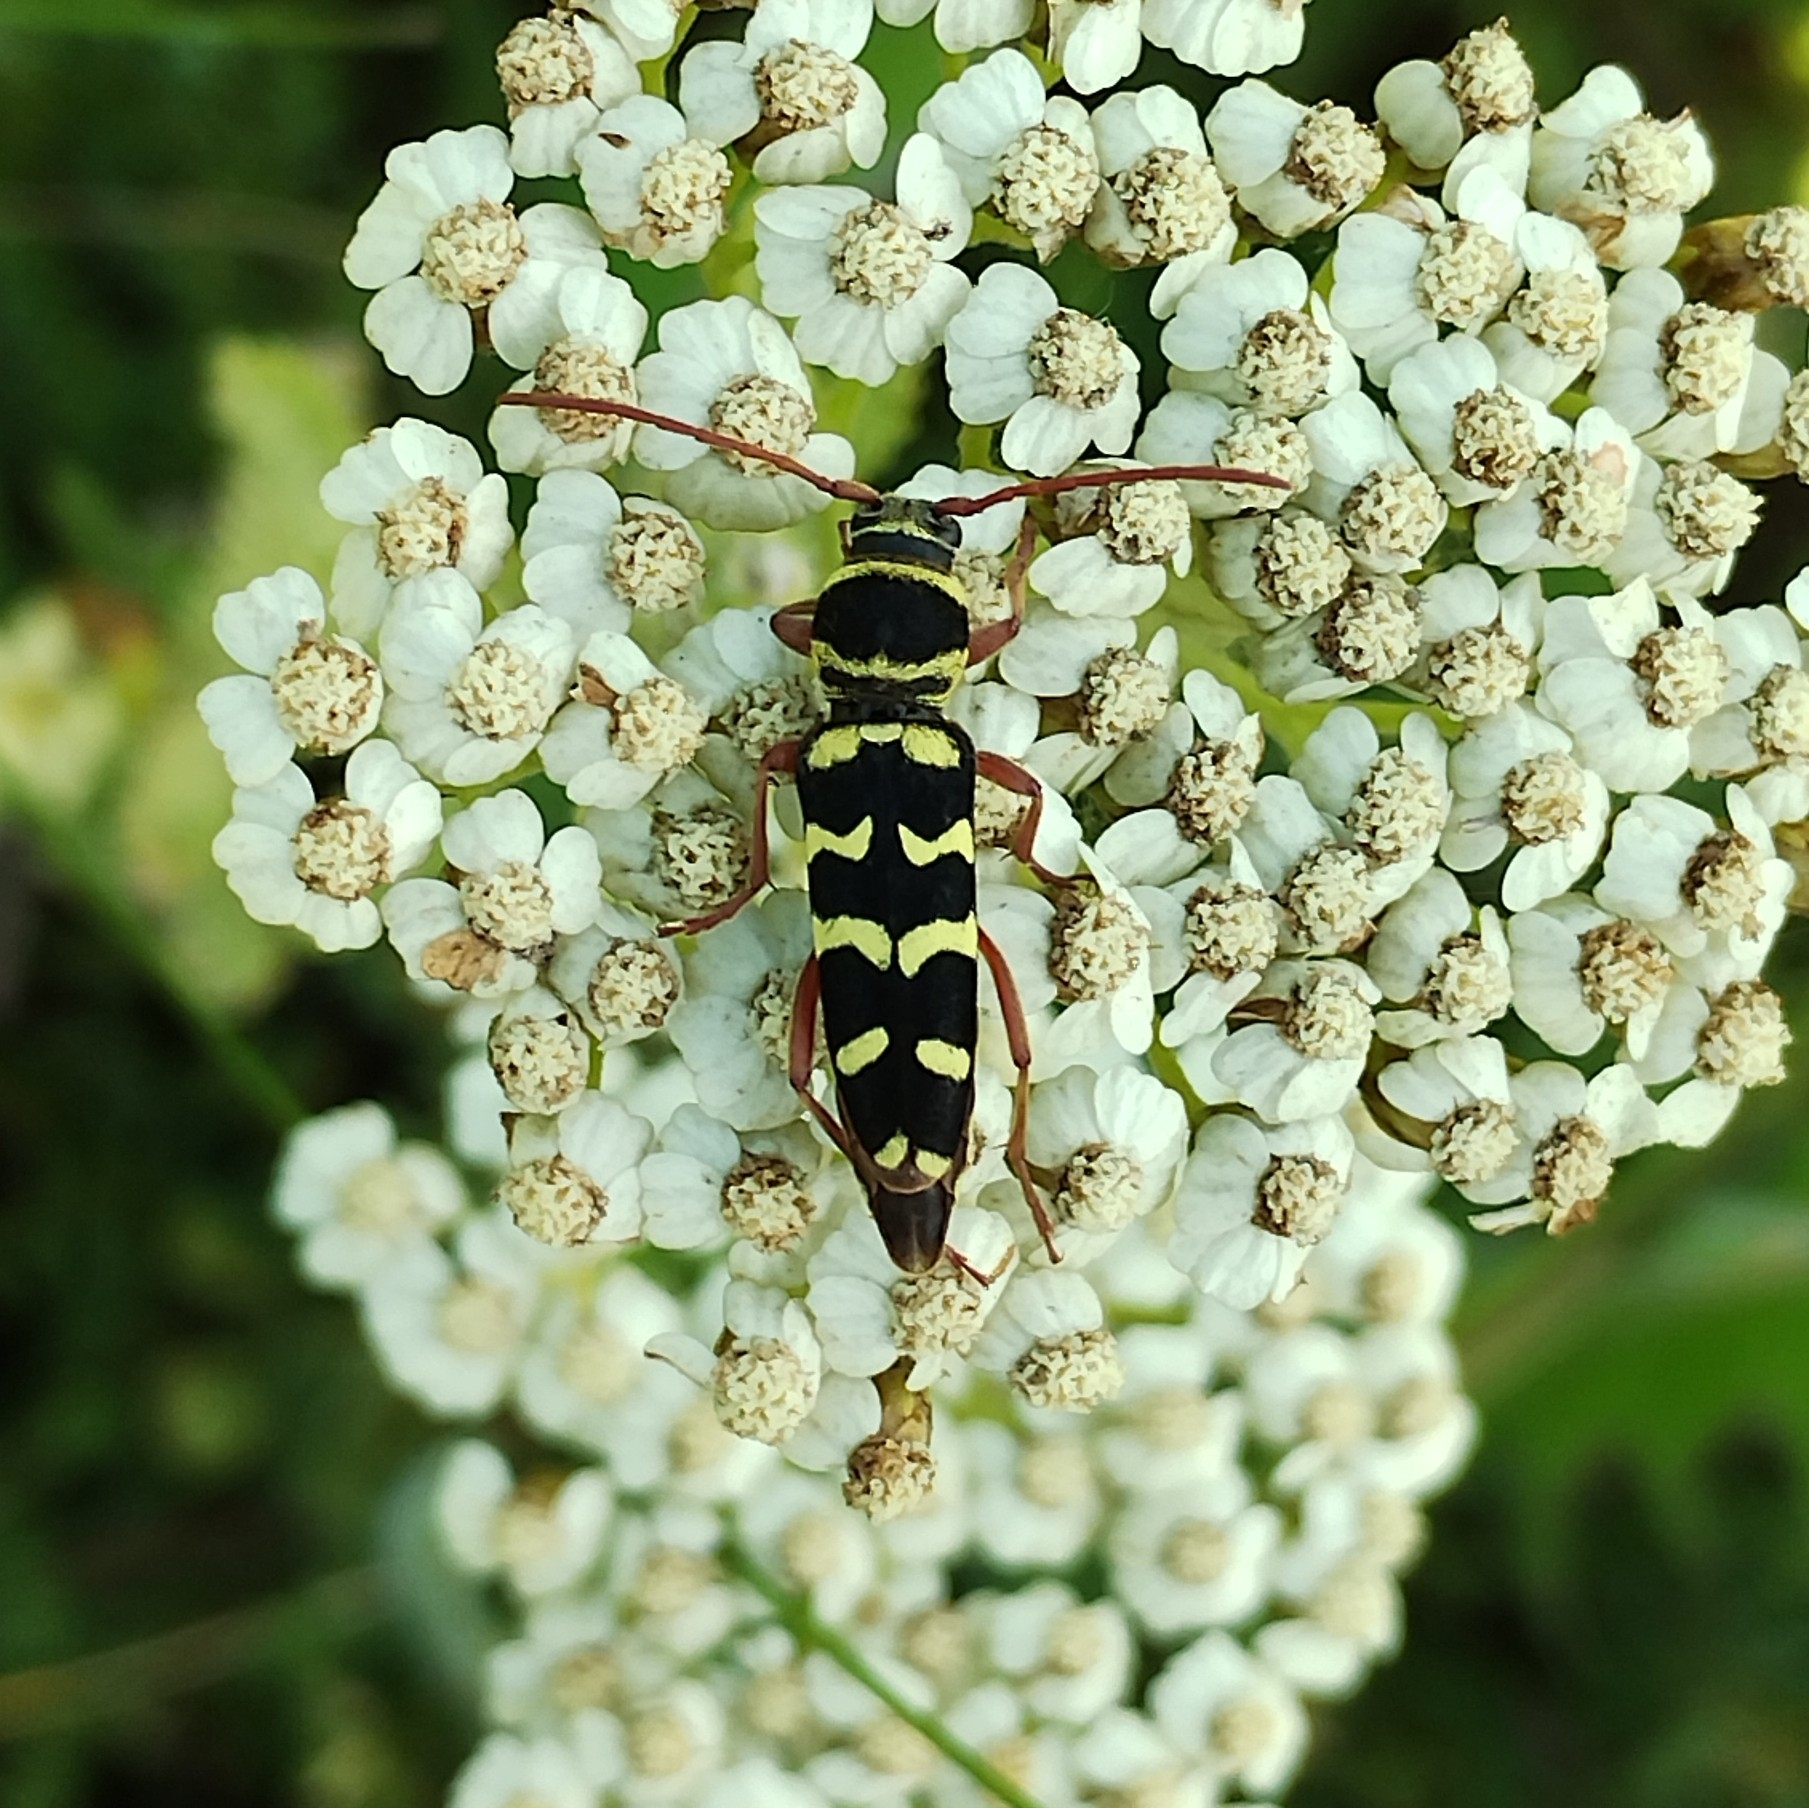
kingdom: Animalia
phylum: Arthropoda
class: Insecta
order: Coleoptera
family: Cerambycidae
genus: Plagionotus
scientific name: Plagionotus floralis
